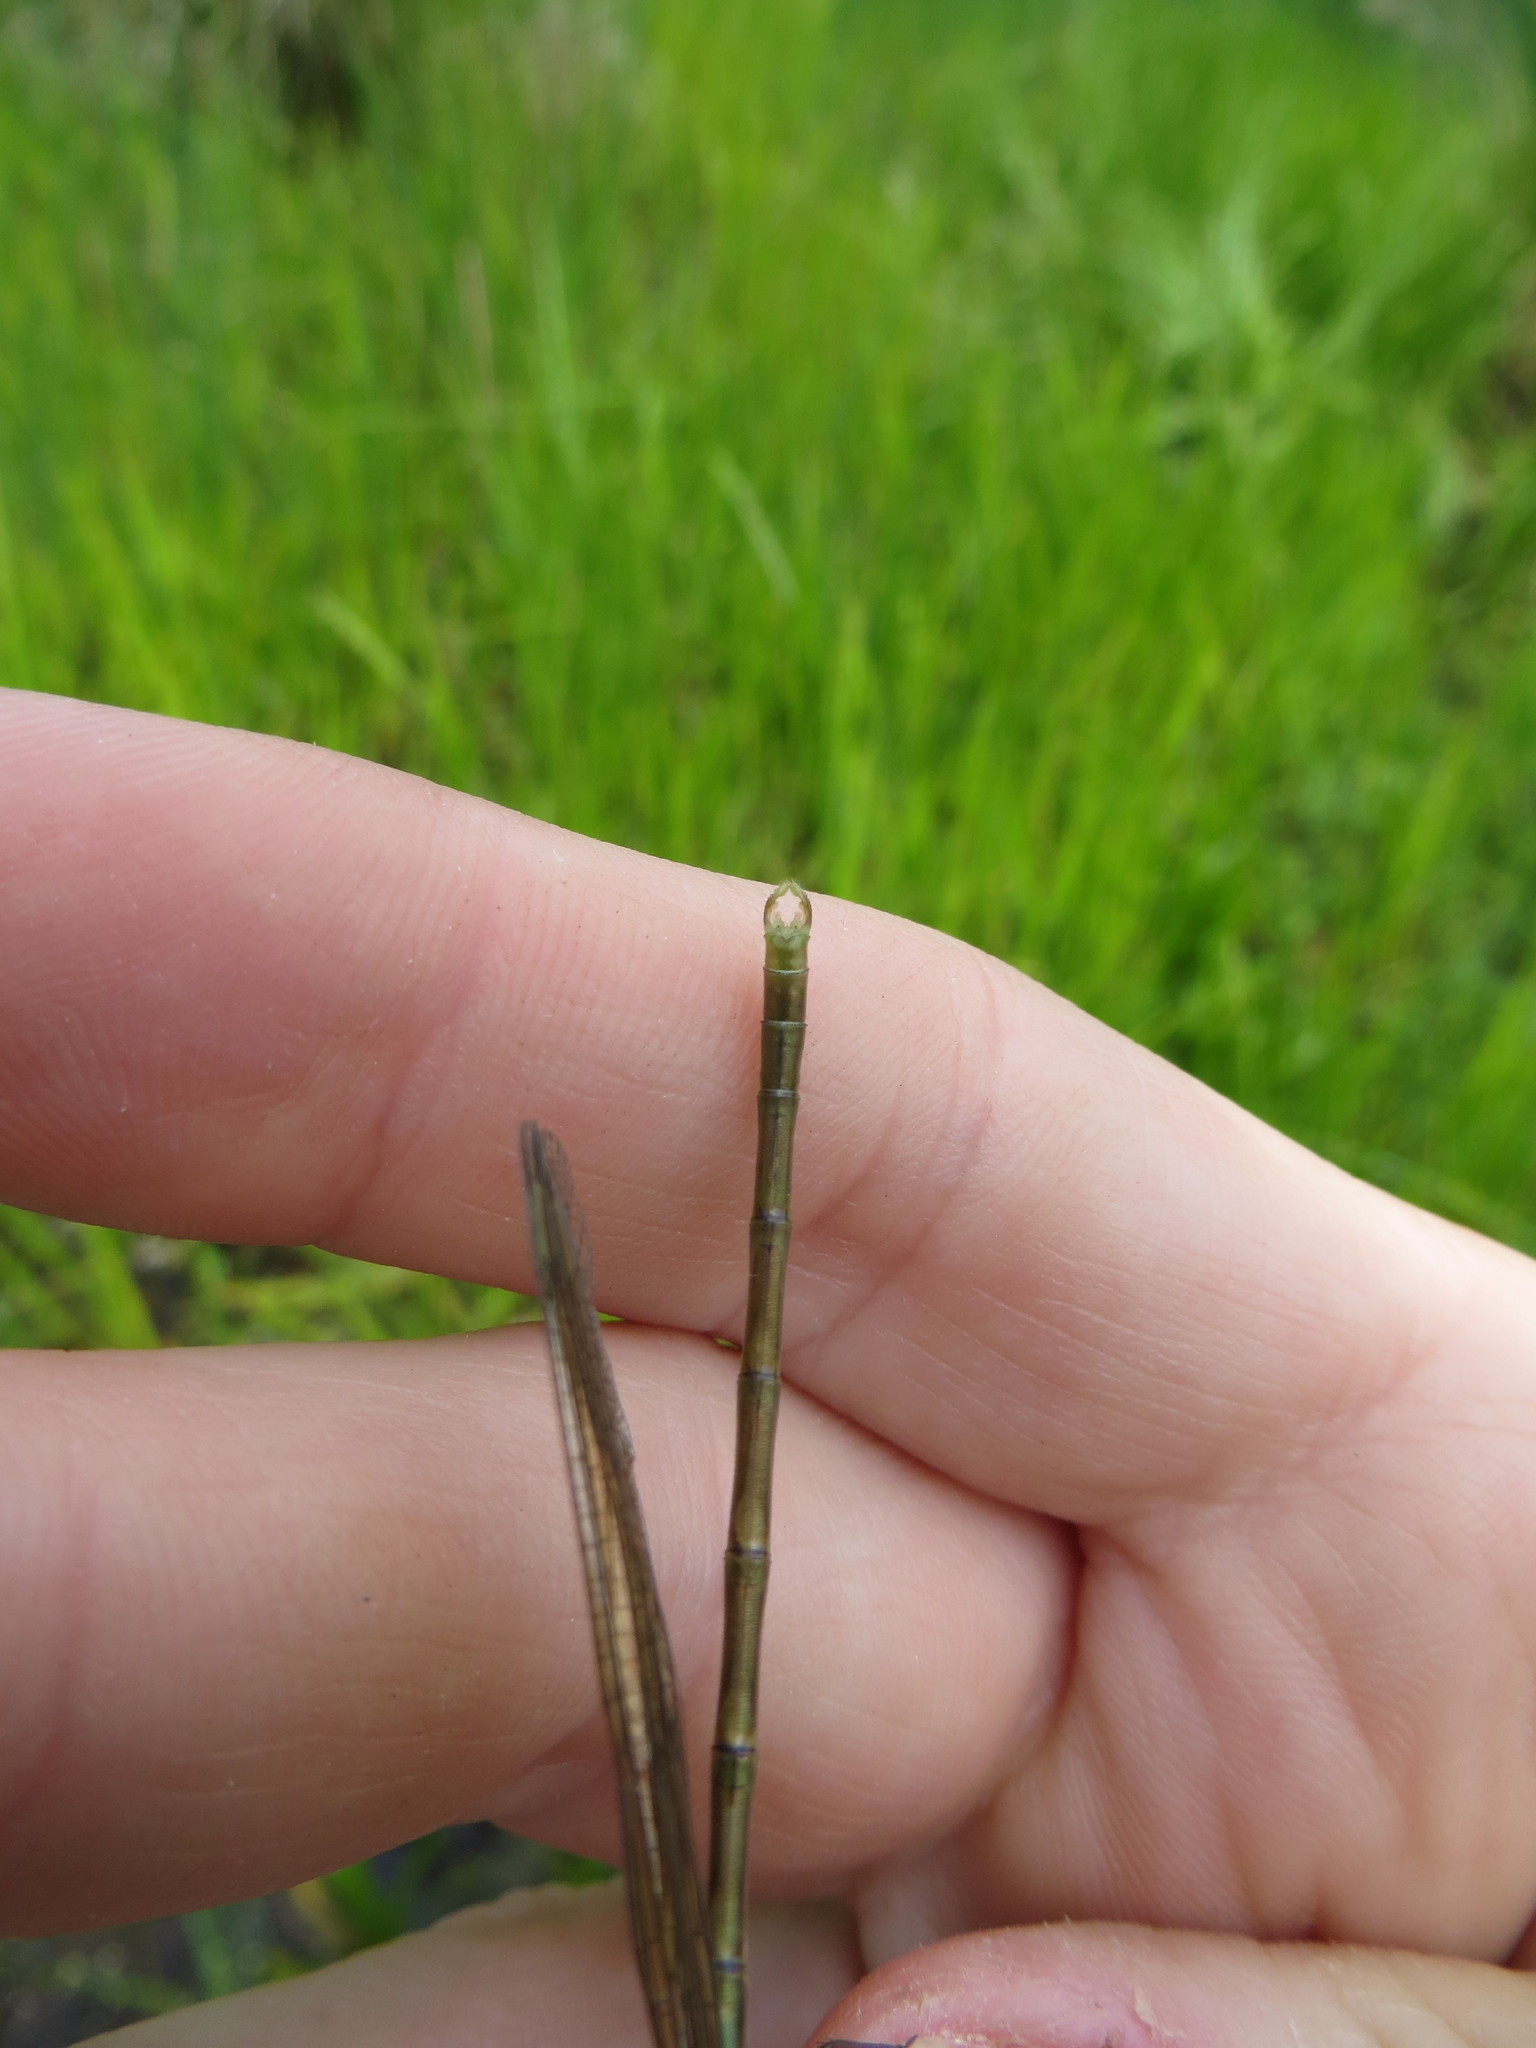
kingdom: Animalia
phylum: Arthropoda
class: Insecta
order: Odonata
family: Lestidae
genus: Lestes
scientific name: Lestes eurinus
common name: Amber-winged spreadwing
